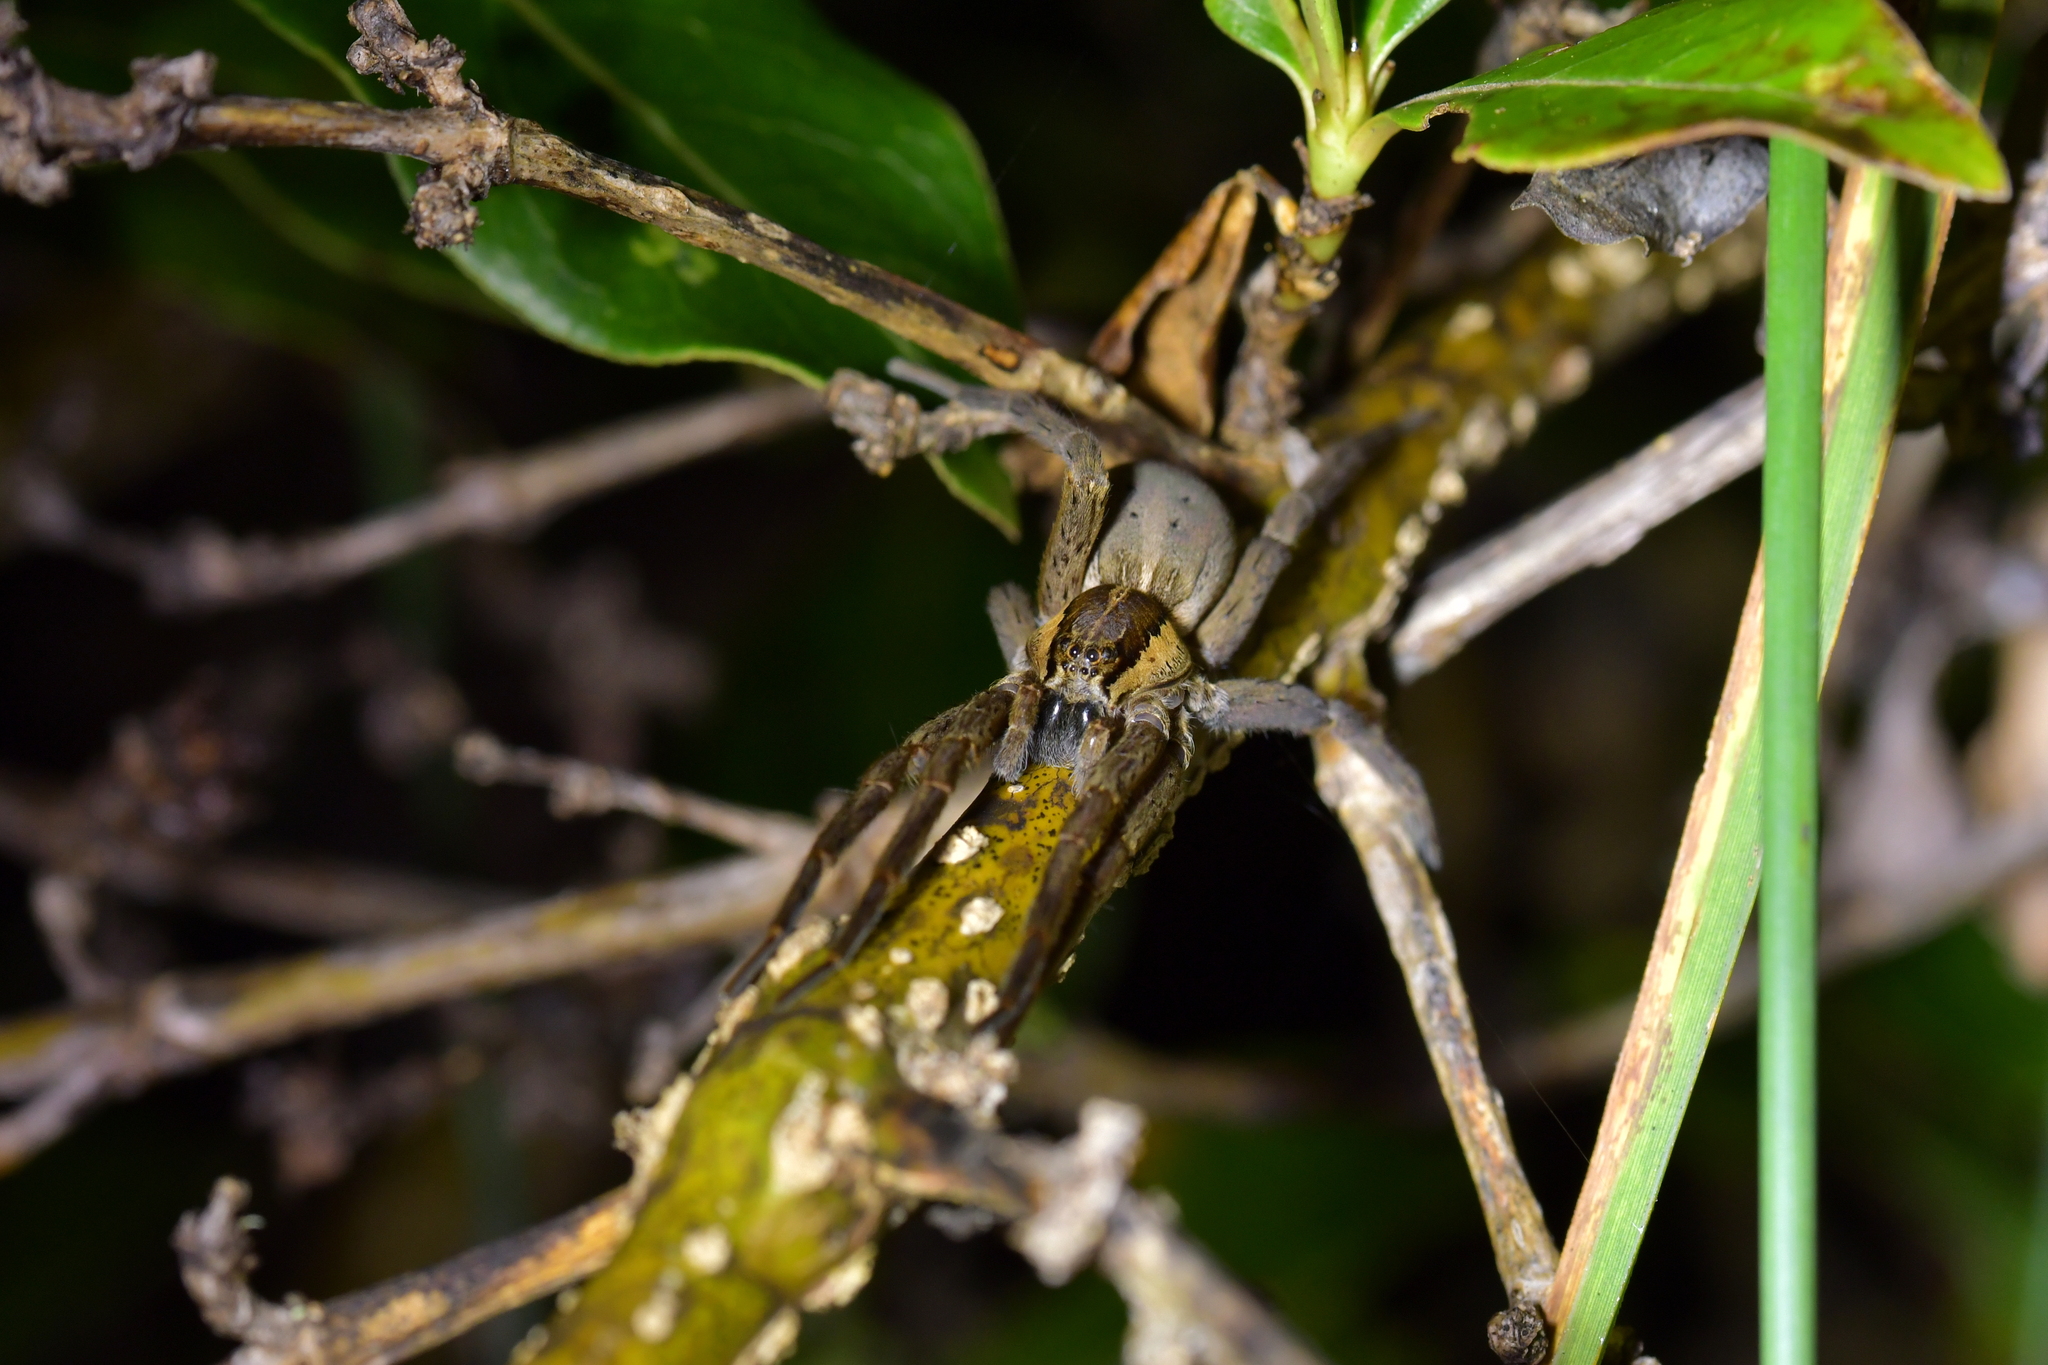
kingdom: Animalia
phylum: Arthropoda
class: Arachnida
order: Araneae
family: Pisauridae
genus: Dolomedes
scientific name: Dolomedes minor
